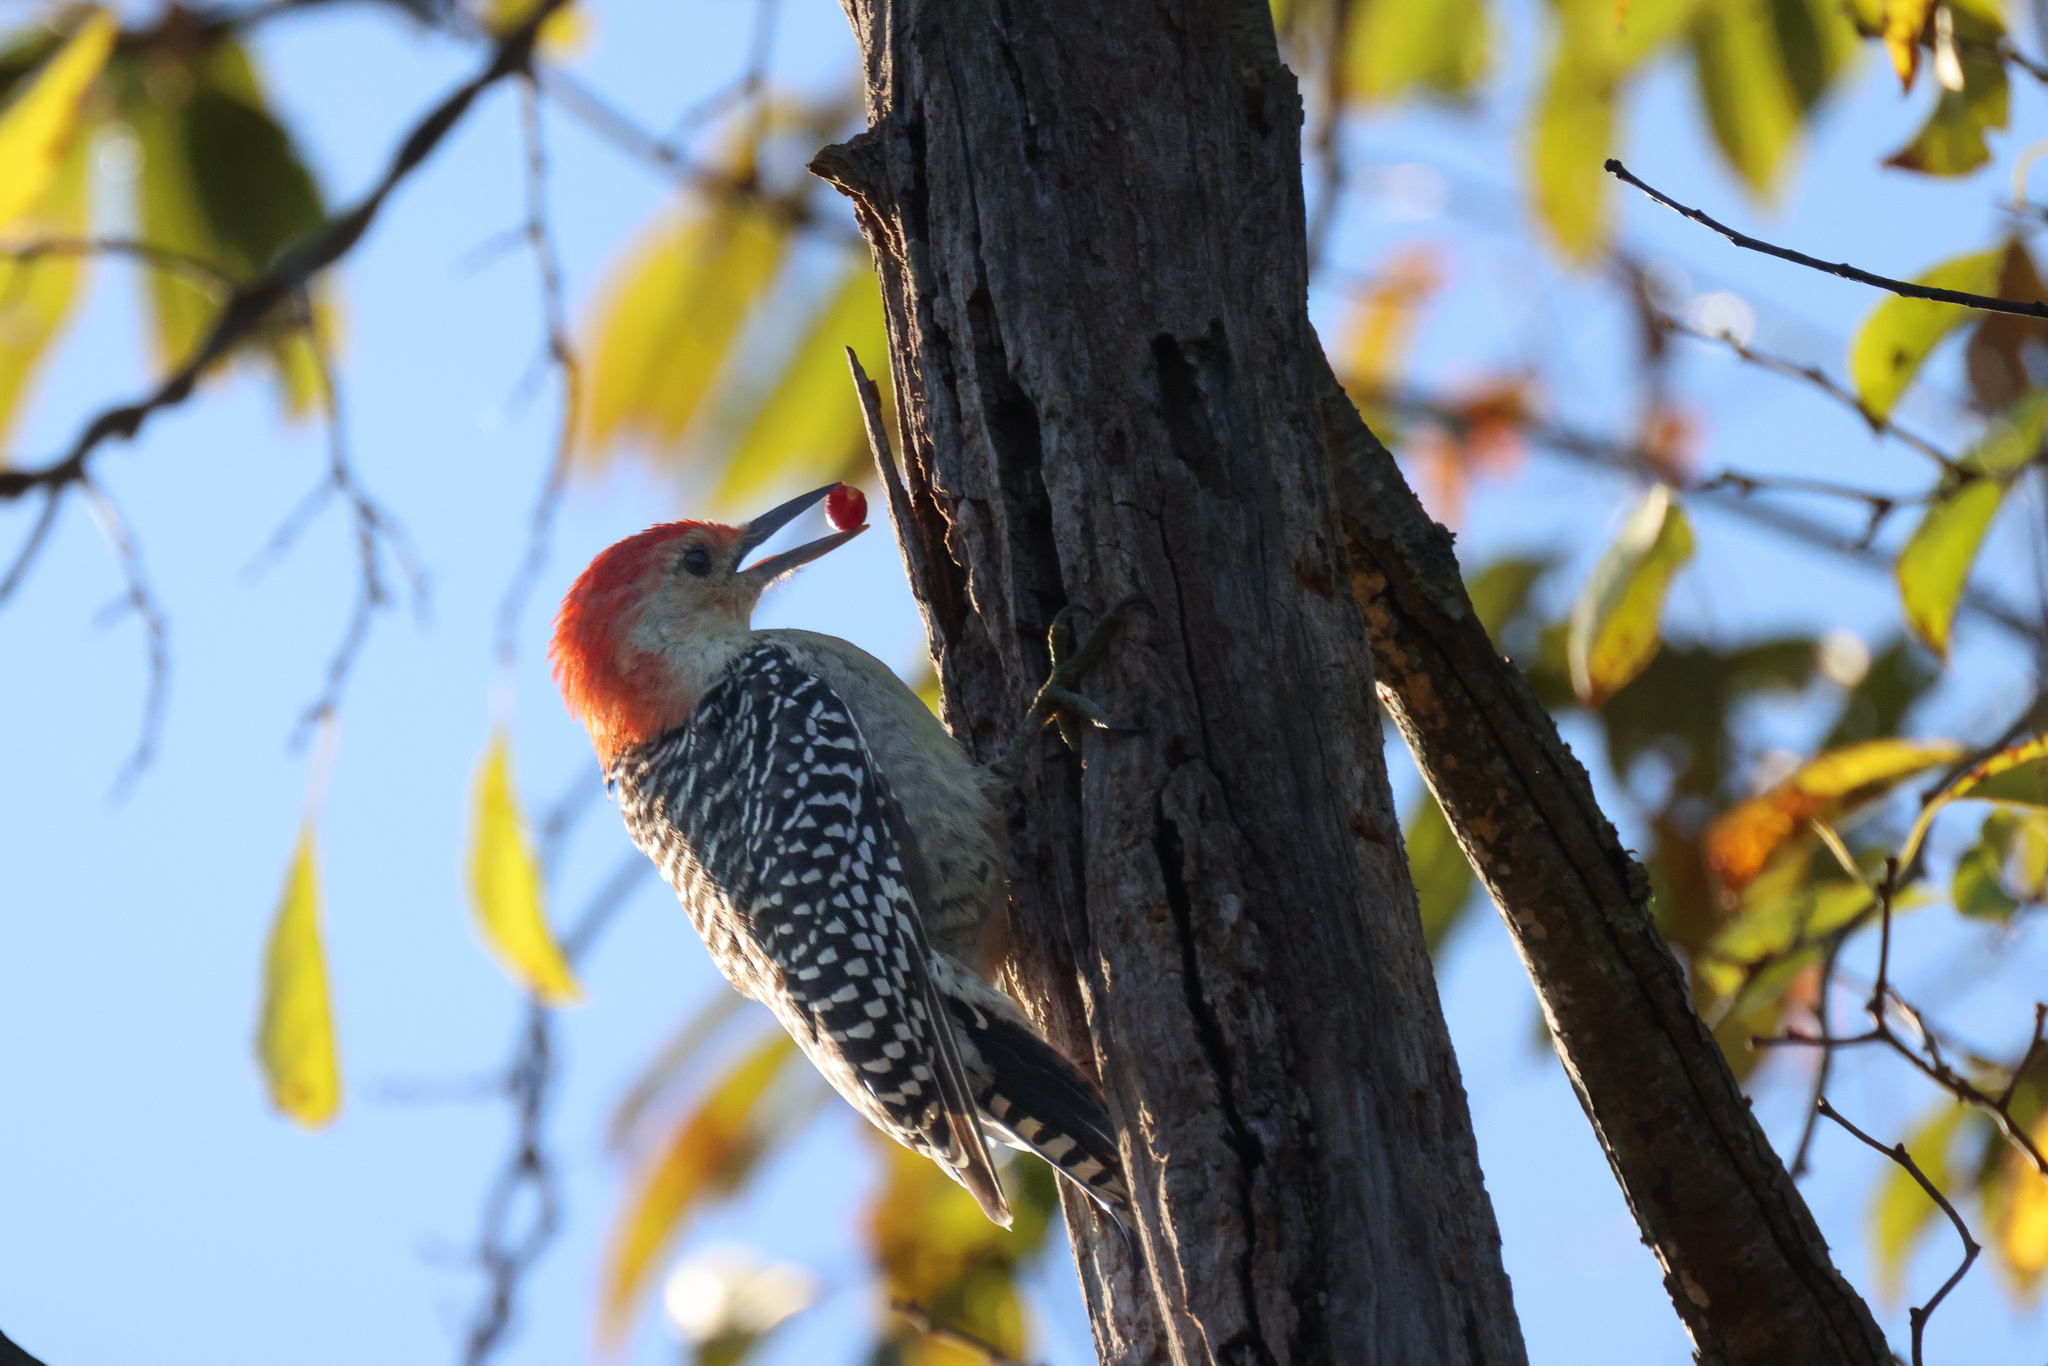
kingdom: Animalia
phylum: Chordata
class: Aves
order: Piciformes
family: Picidae
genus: Melanerpes
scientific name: Melanerpes carolinus
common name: Red-bellied woodpecker
